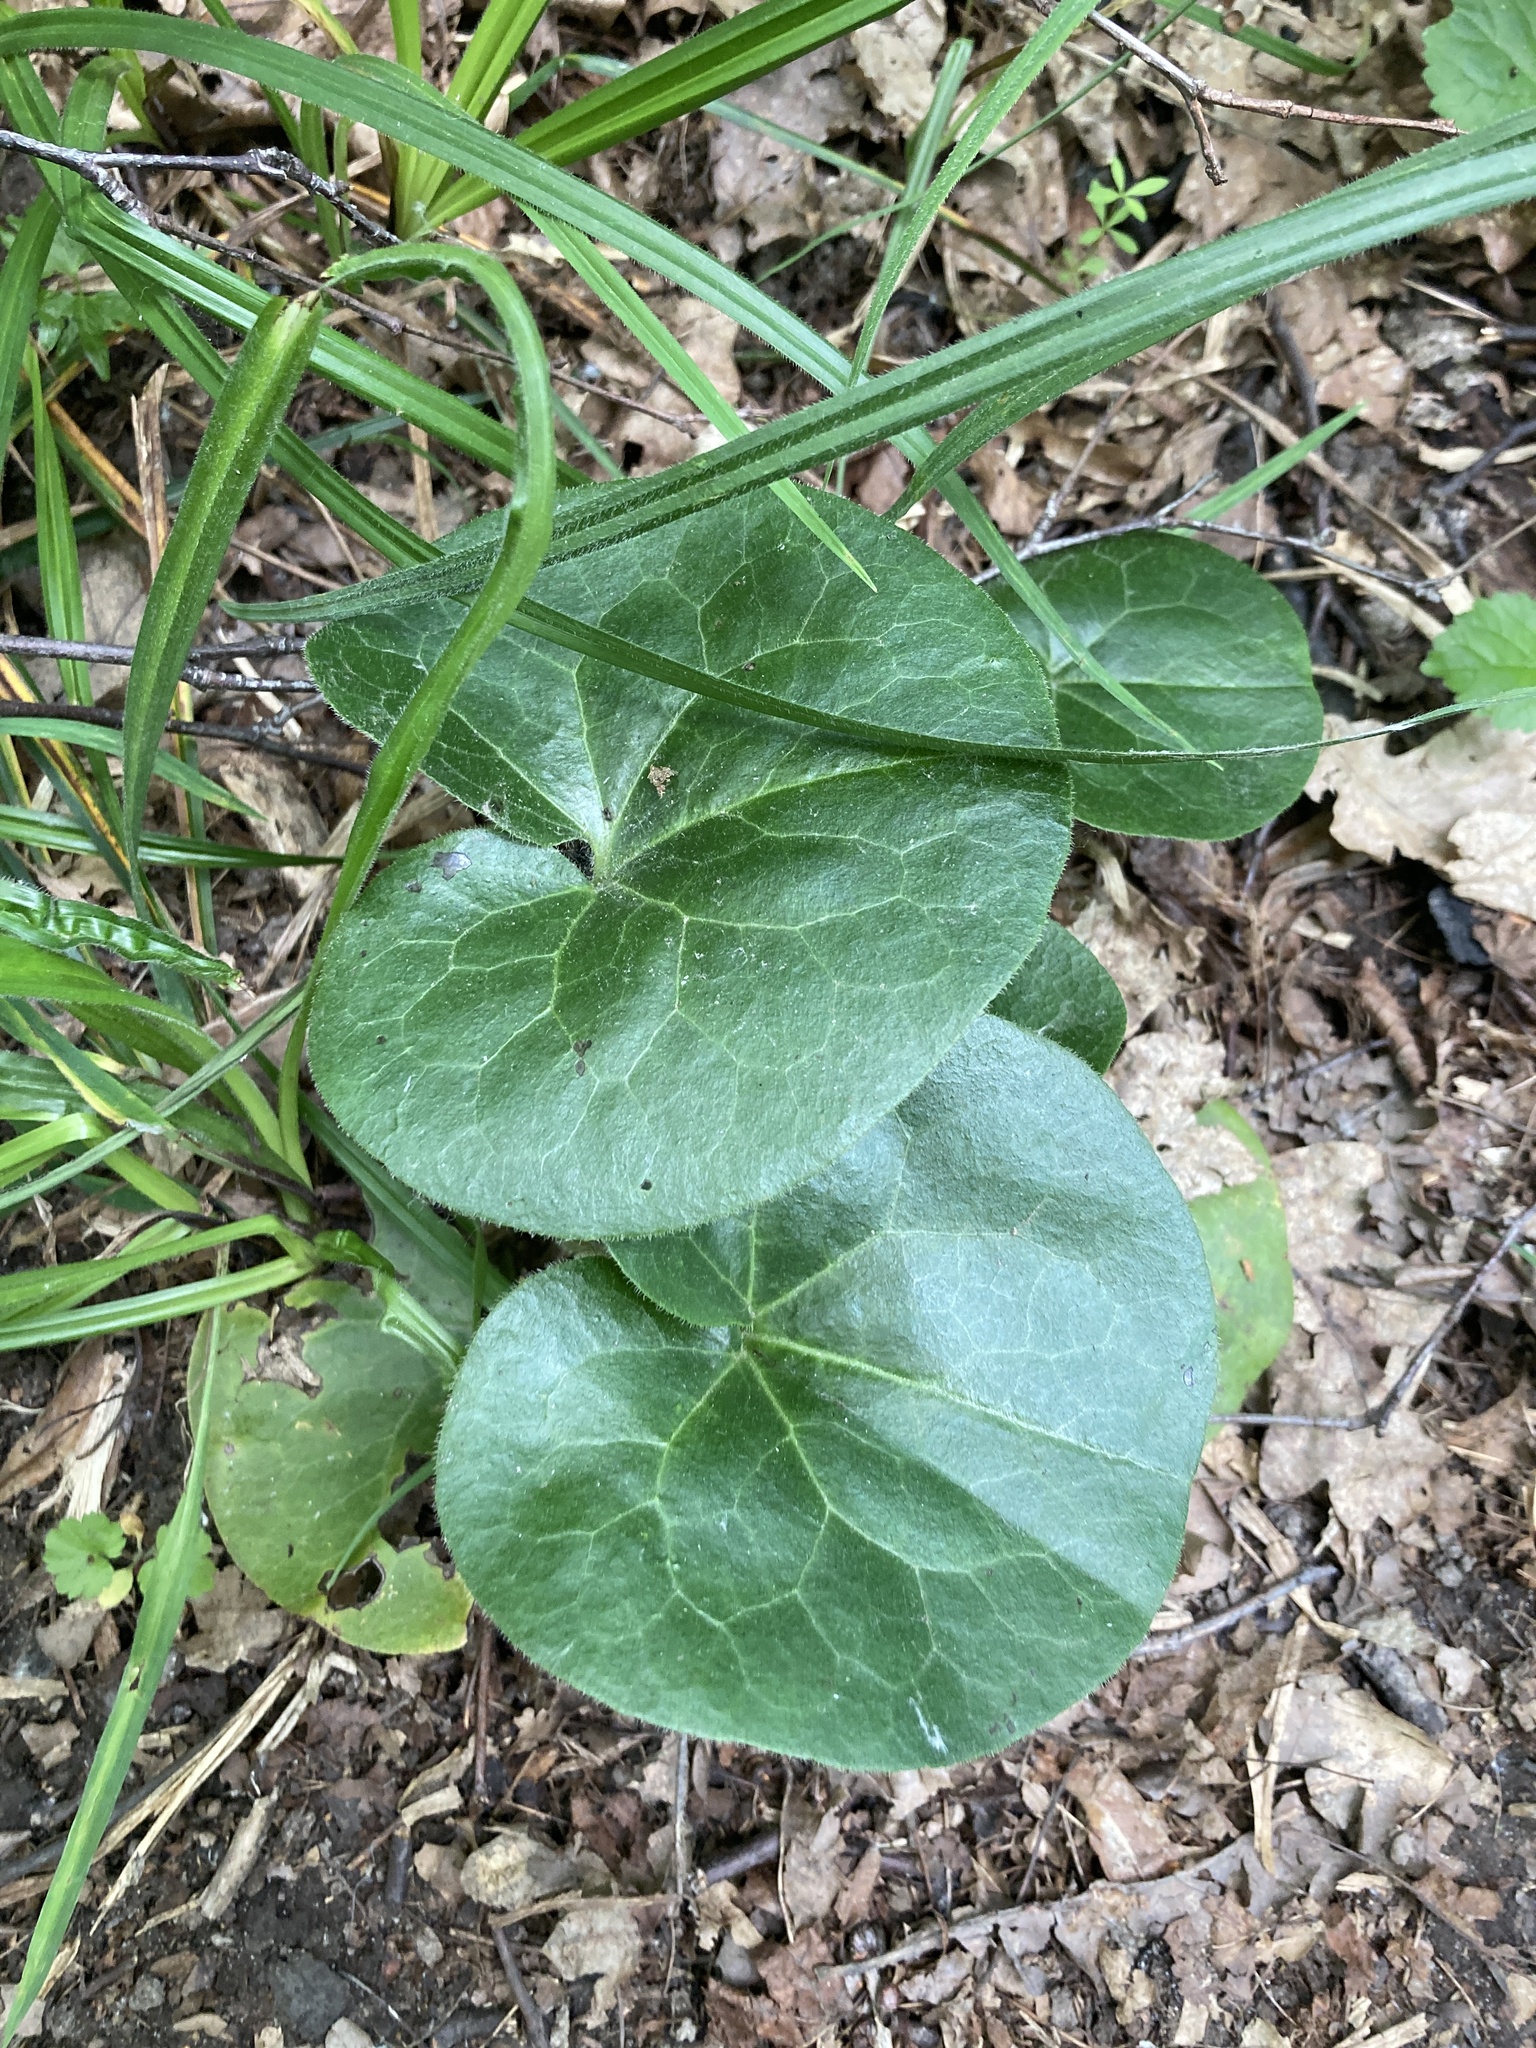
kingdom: Plantae
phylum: Tracheophyta
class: Magnoliopsida
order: Piperales
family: Aristolochiaceae
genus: Asarum
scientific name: Asarum europaeum
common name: Asarabacca
